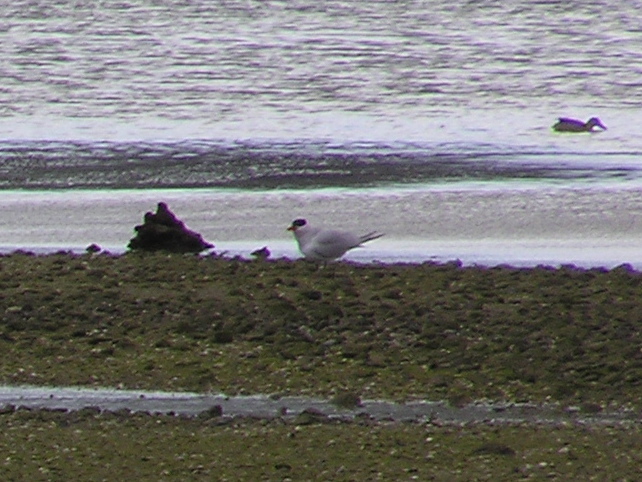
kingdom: Animalia
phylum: Chordata
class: Aves
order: Charadriiformes
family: Laridae
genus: Hydroprogne
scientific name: Hydroprogne caspia
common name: Caspian tern
